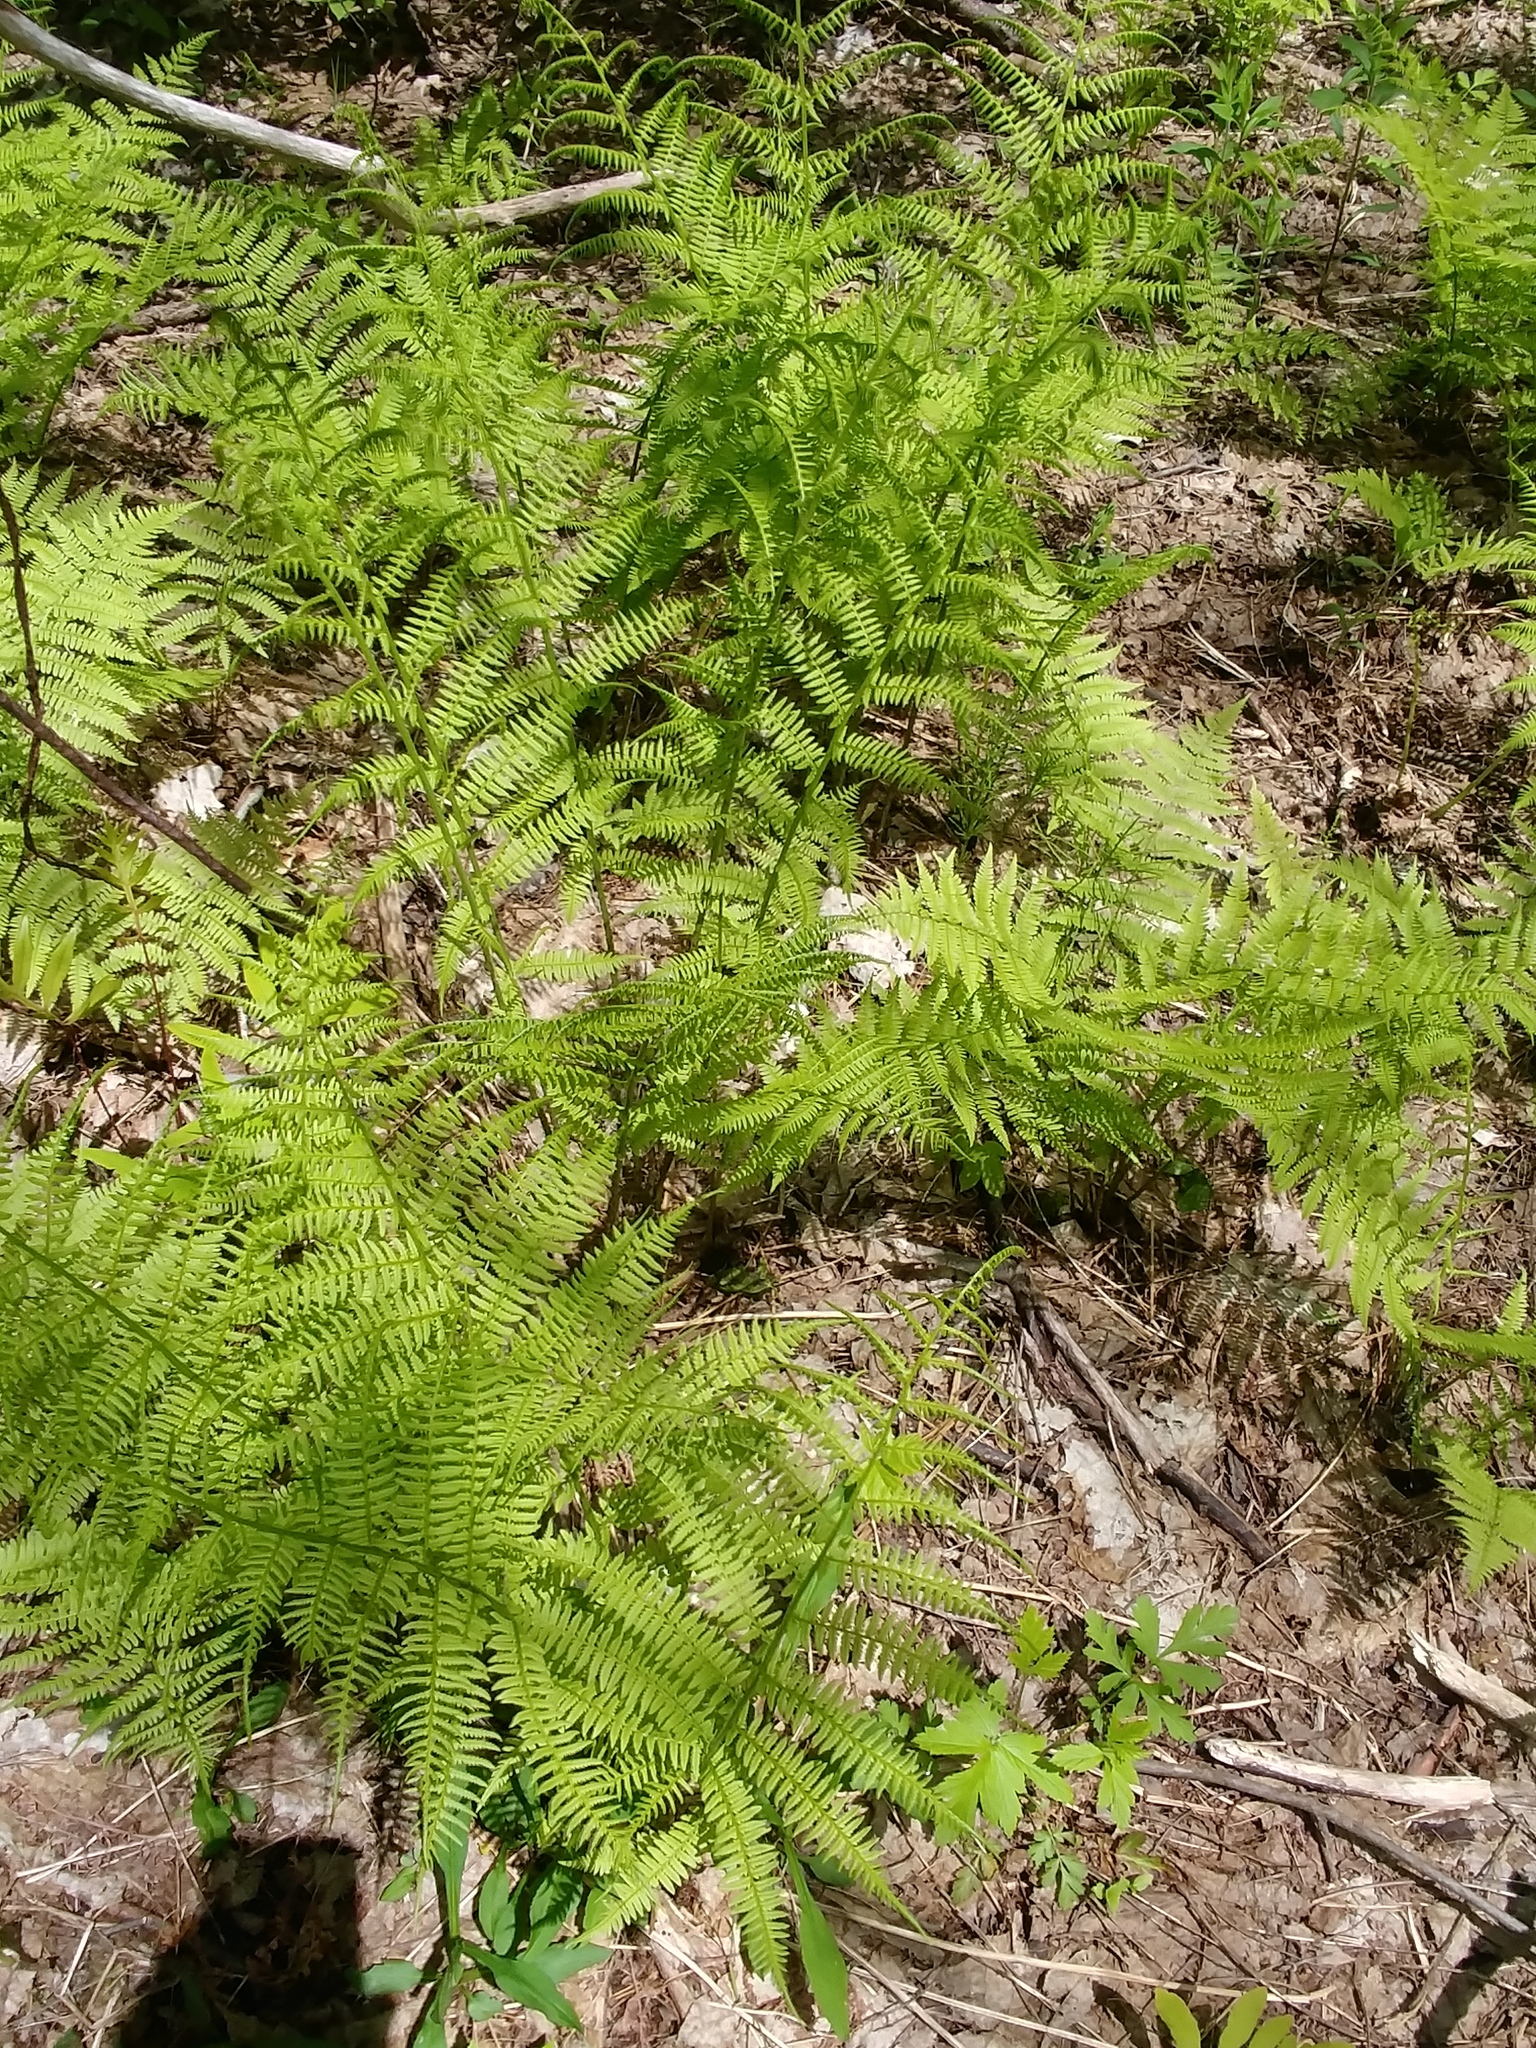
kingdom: Plantae
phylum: Tracheophyta
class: Polypodiopsida
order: Polypodiales
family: Athyriaceae
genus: Athyrium
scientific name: Athyrium angustum
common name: Northern lady fern
